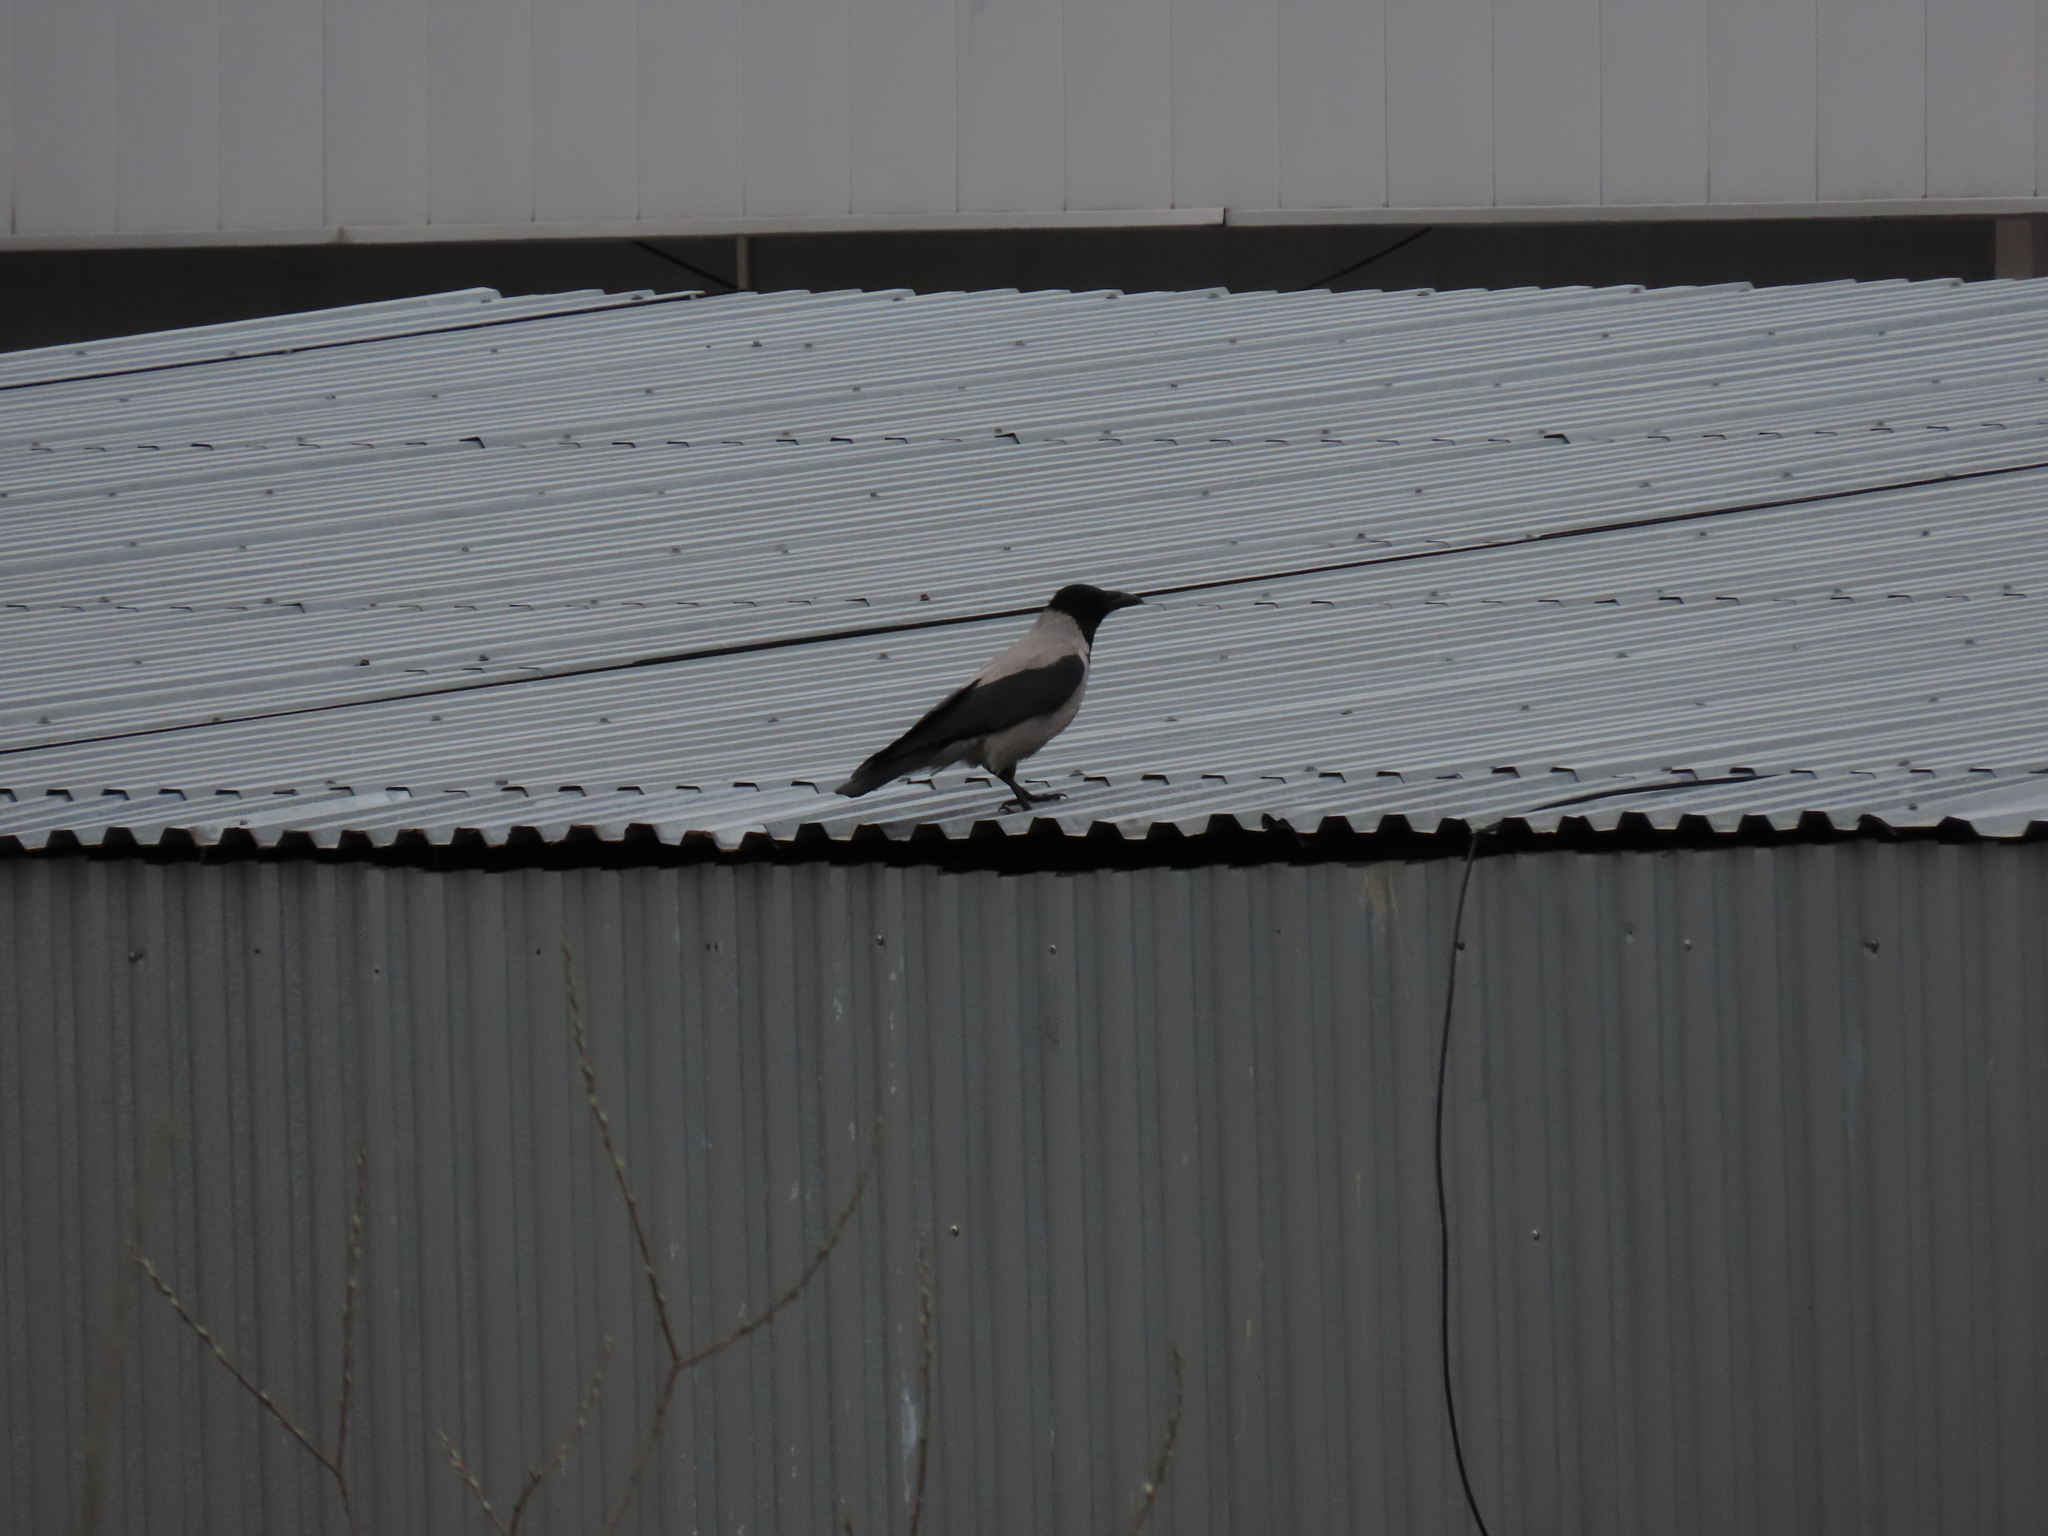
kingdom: Animalia
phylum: Chordata
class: Aves
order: Passeriformes
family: Corvidae
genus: Corvus
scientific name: Corvus cornix
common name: Hooded crow
